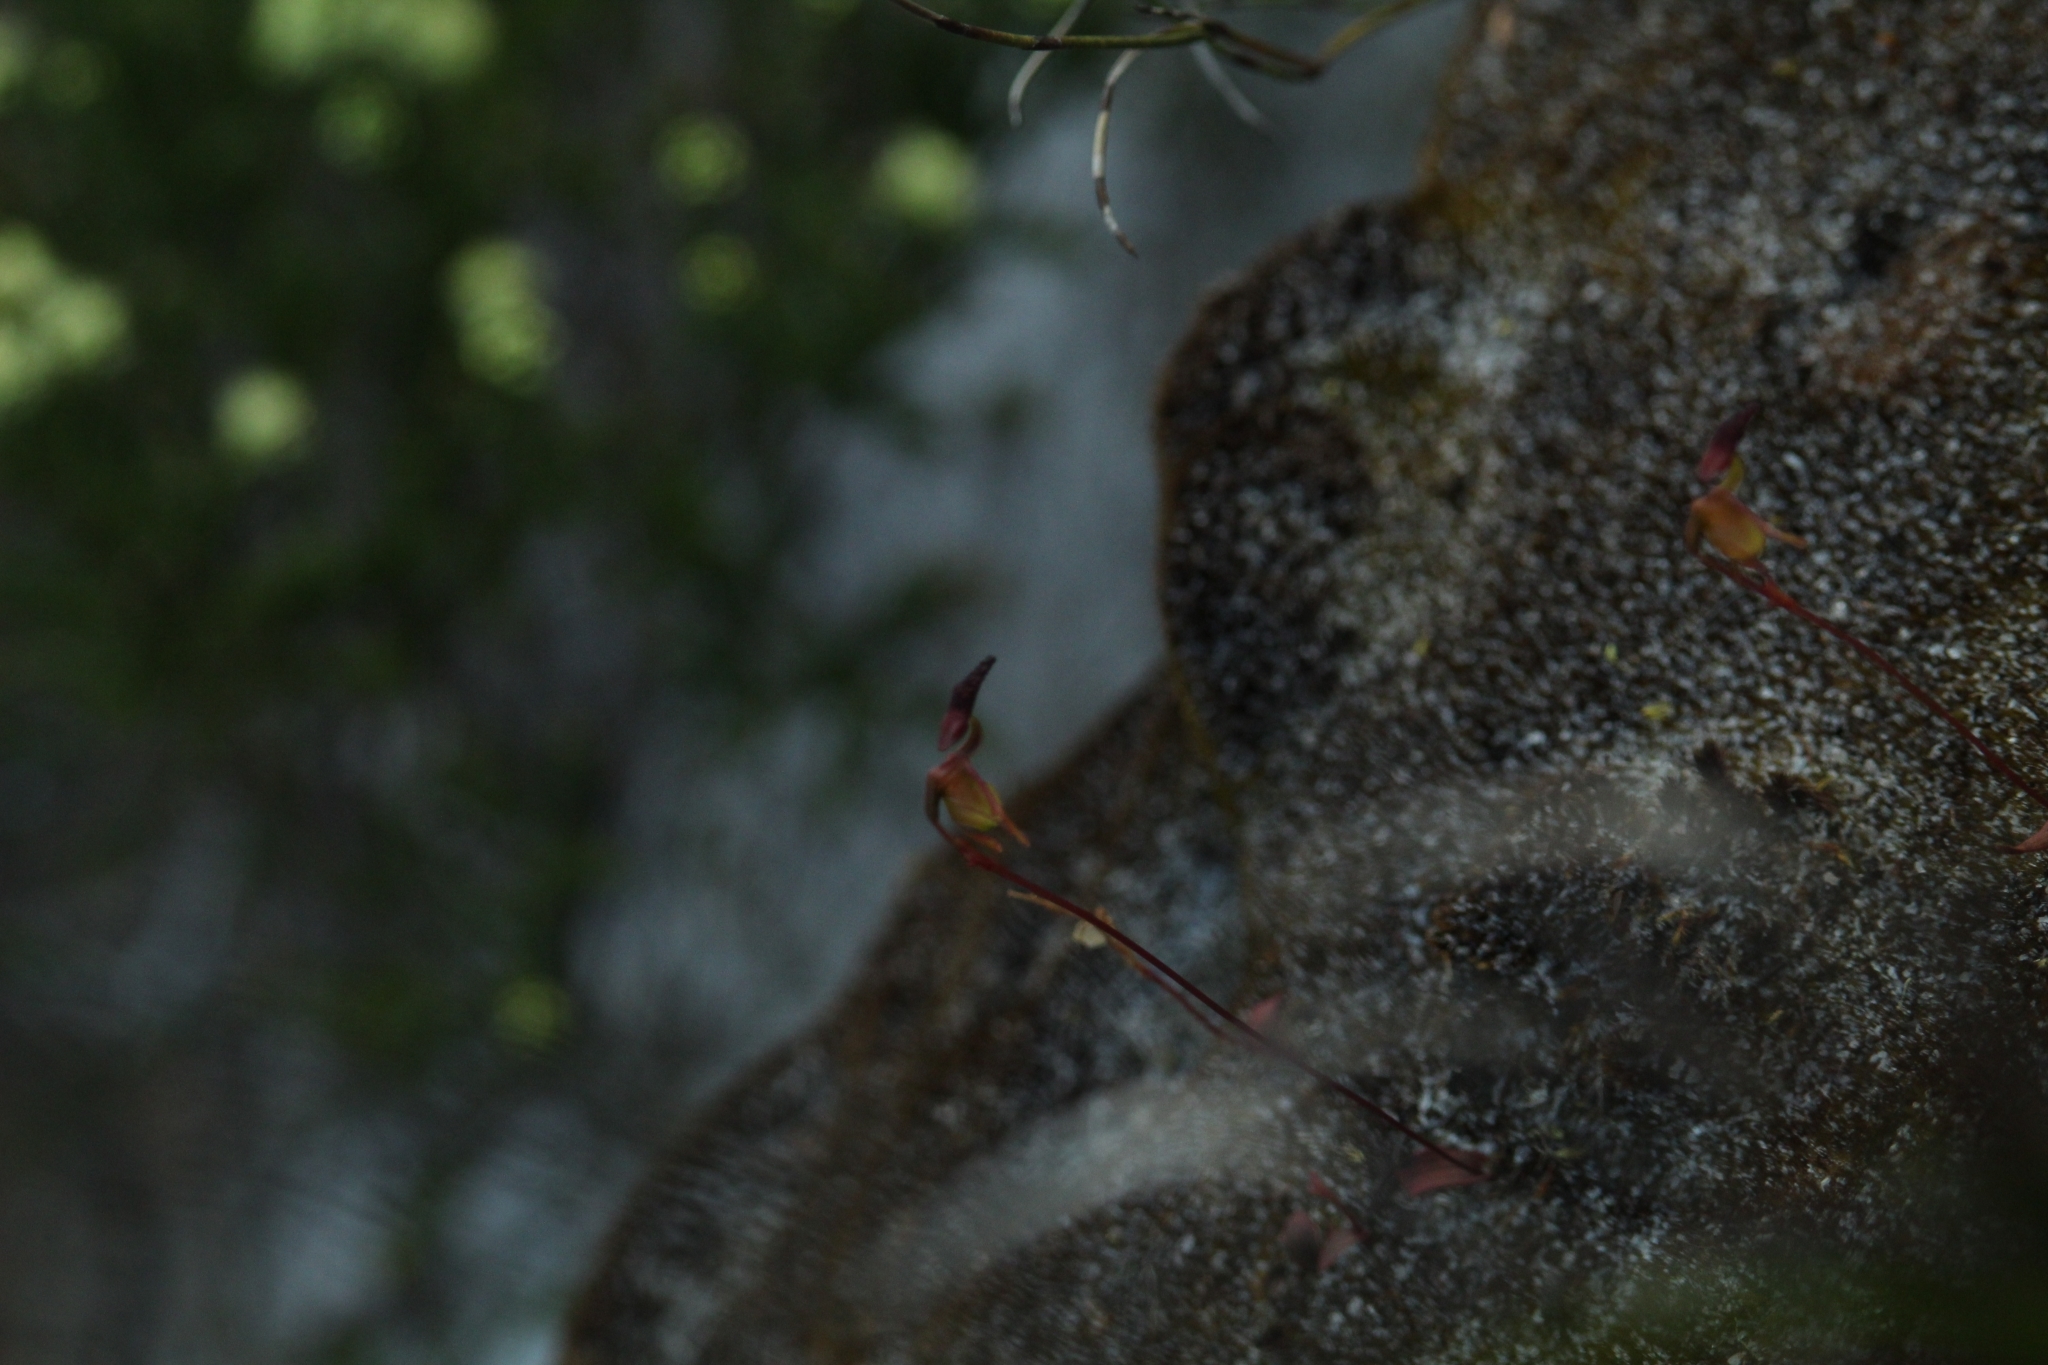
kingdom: Plantae
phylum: Tracheophyta
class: Liliopsida
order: Asparagales
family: Orchidaceae
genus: Caleana
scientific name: Caleana nigrita
